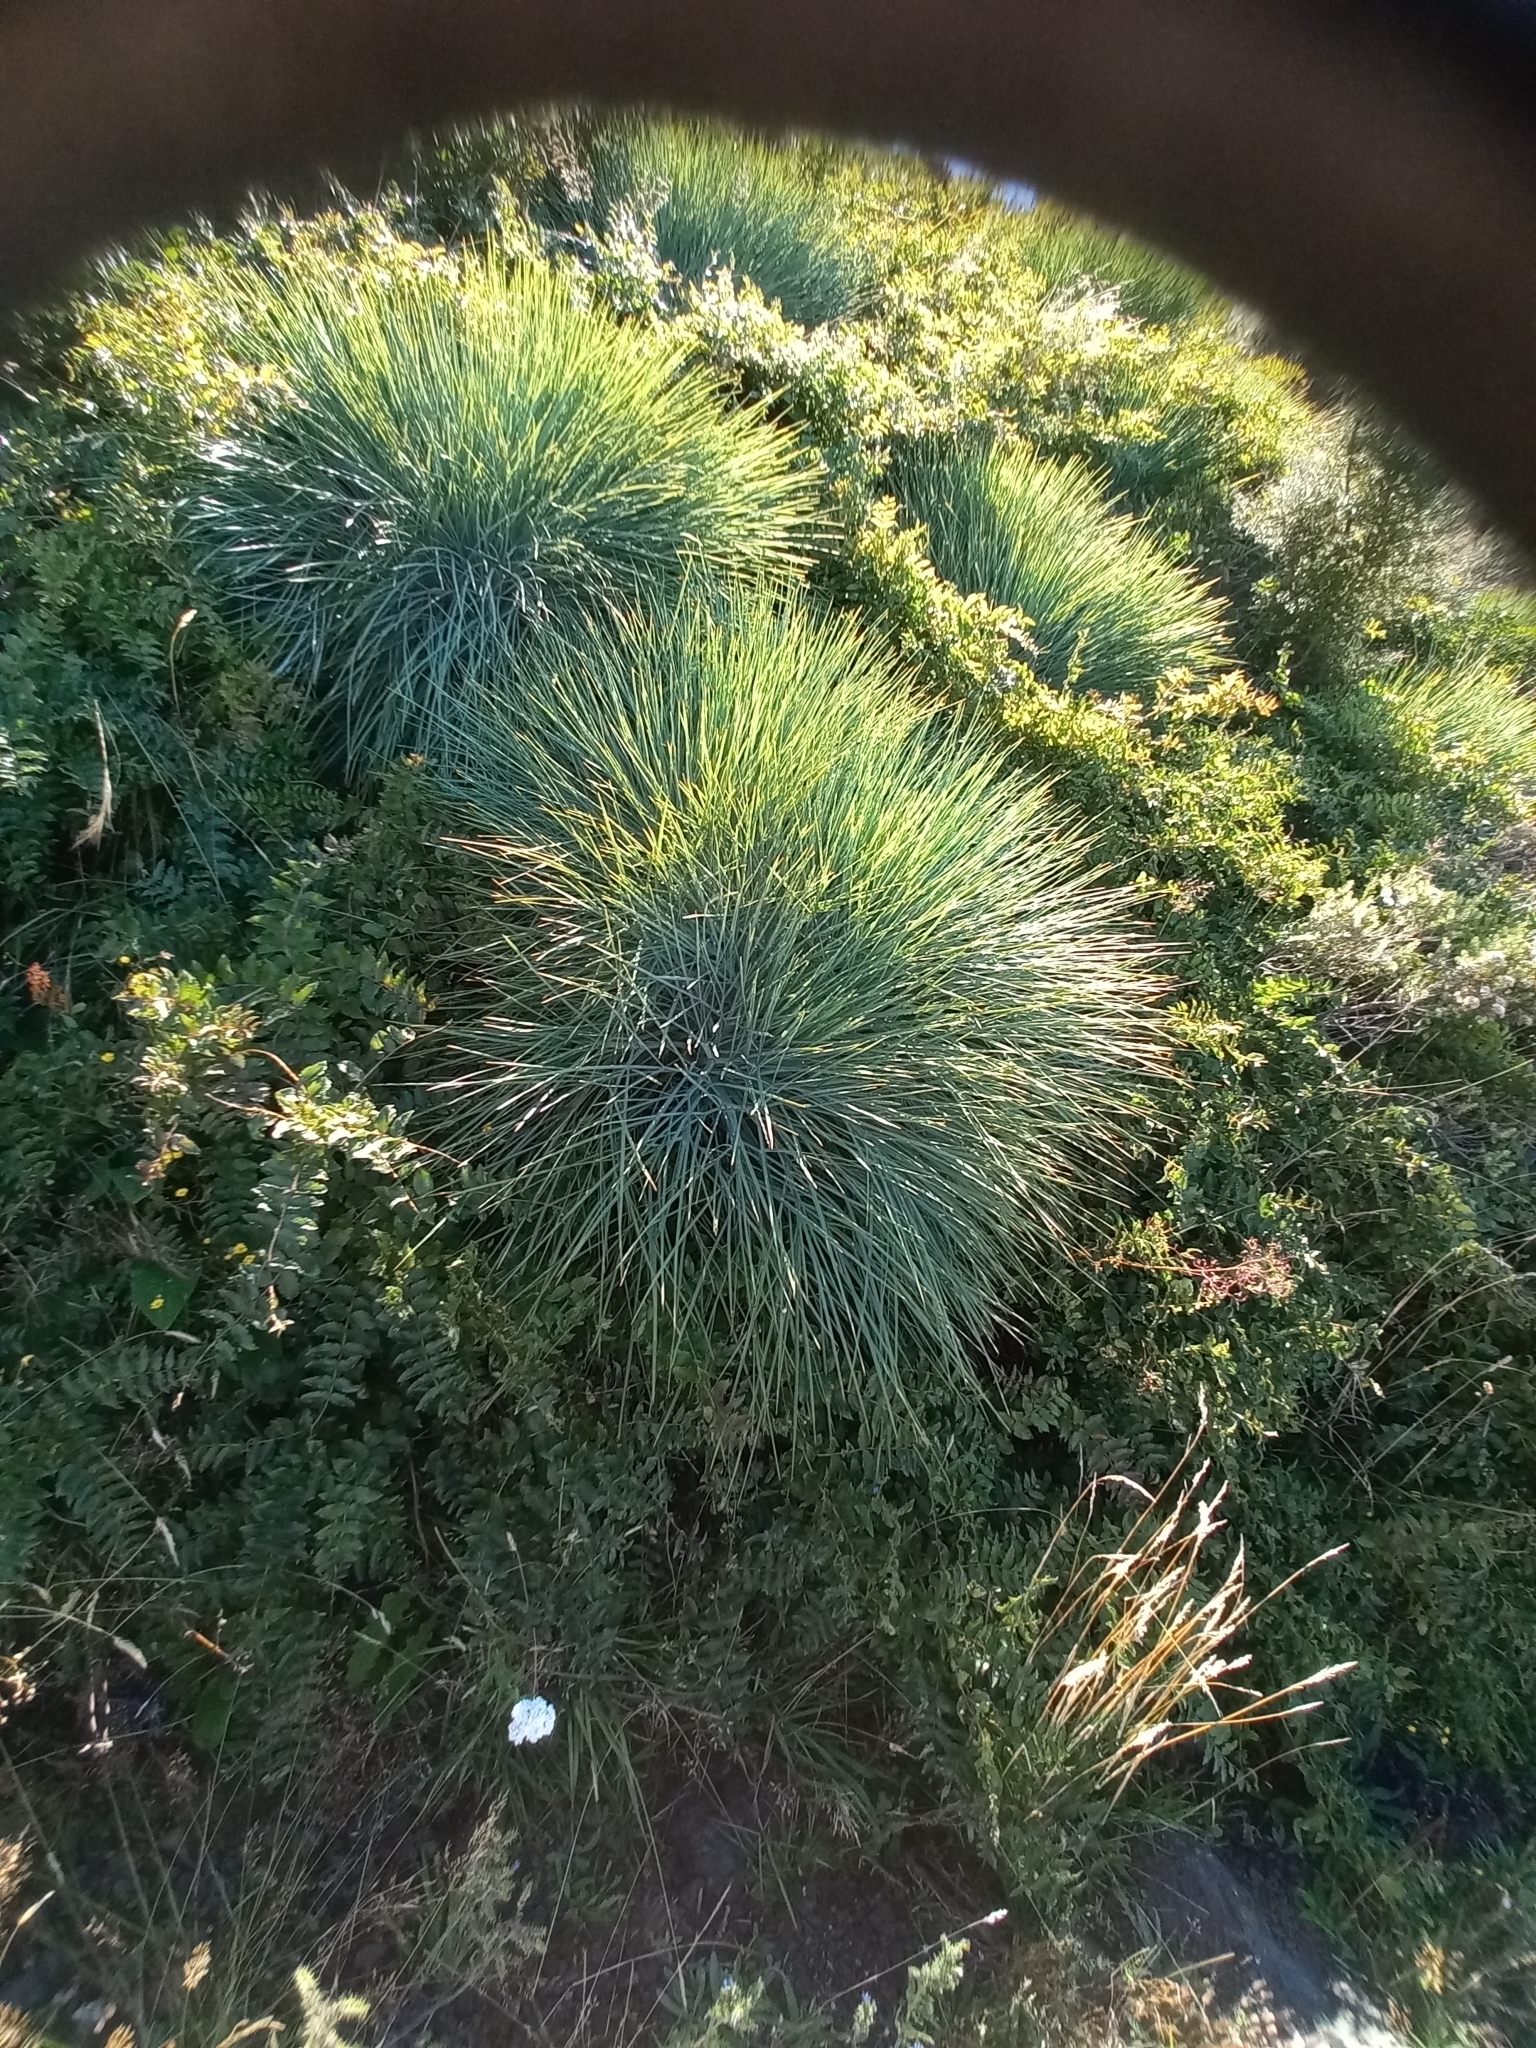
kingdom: Plantae
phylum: Tracheophyta
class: Magnoliopsida
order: Apiales
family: Apiaceae
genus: Aciphylla
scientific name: Aciphylla glaucescens
